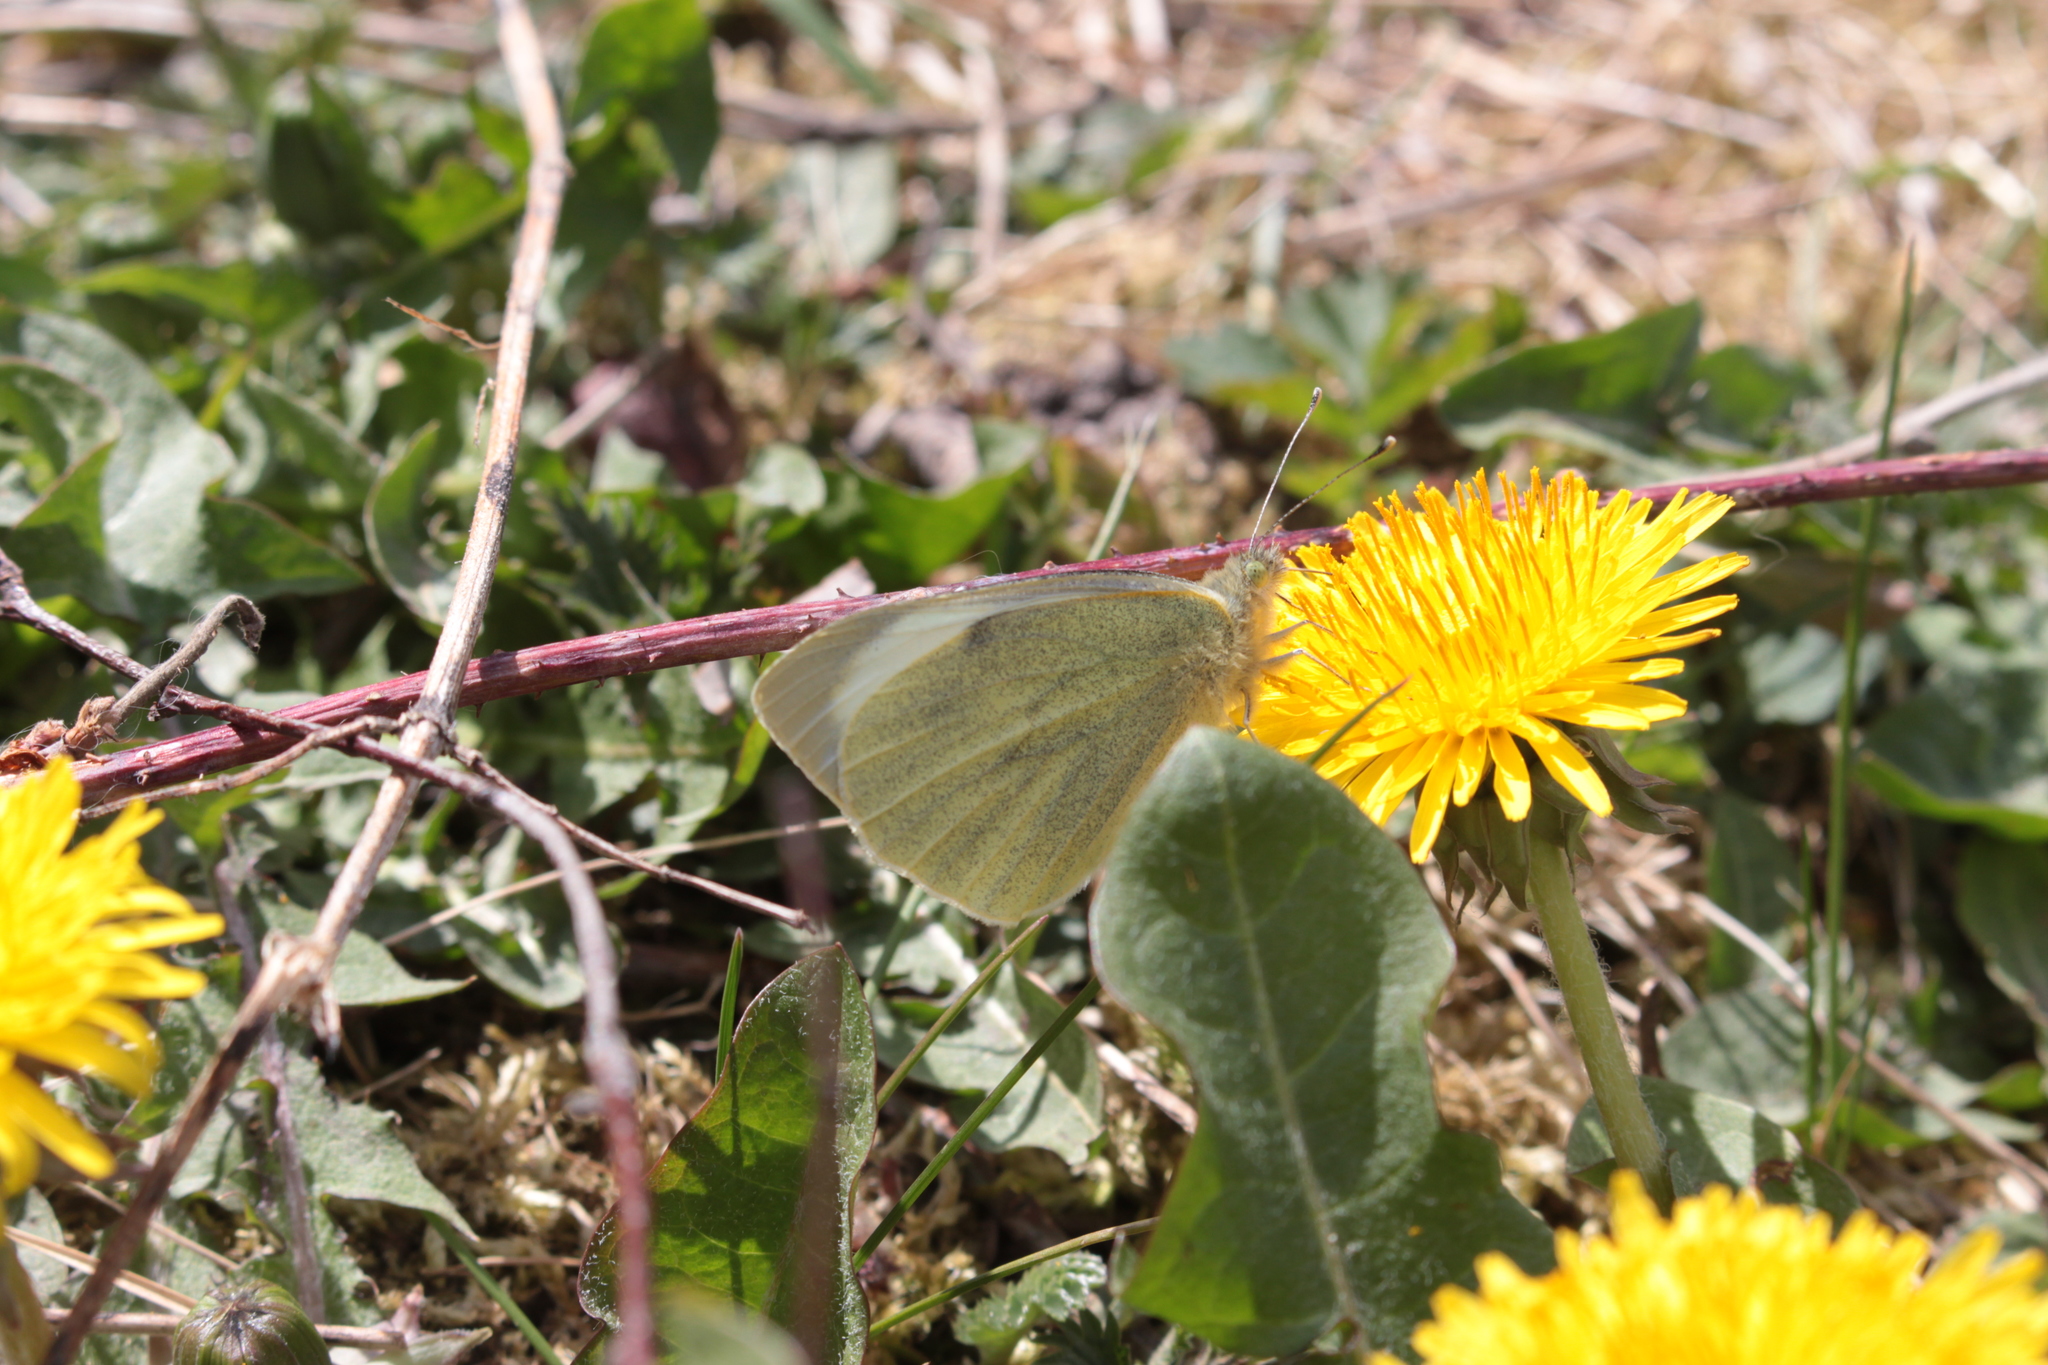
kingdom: Animalia
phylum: Arthropoda
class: Insecta
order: Lepidoptera
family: Pieridae
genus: Pieris
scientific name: Pieris brassicae
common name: Large white
